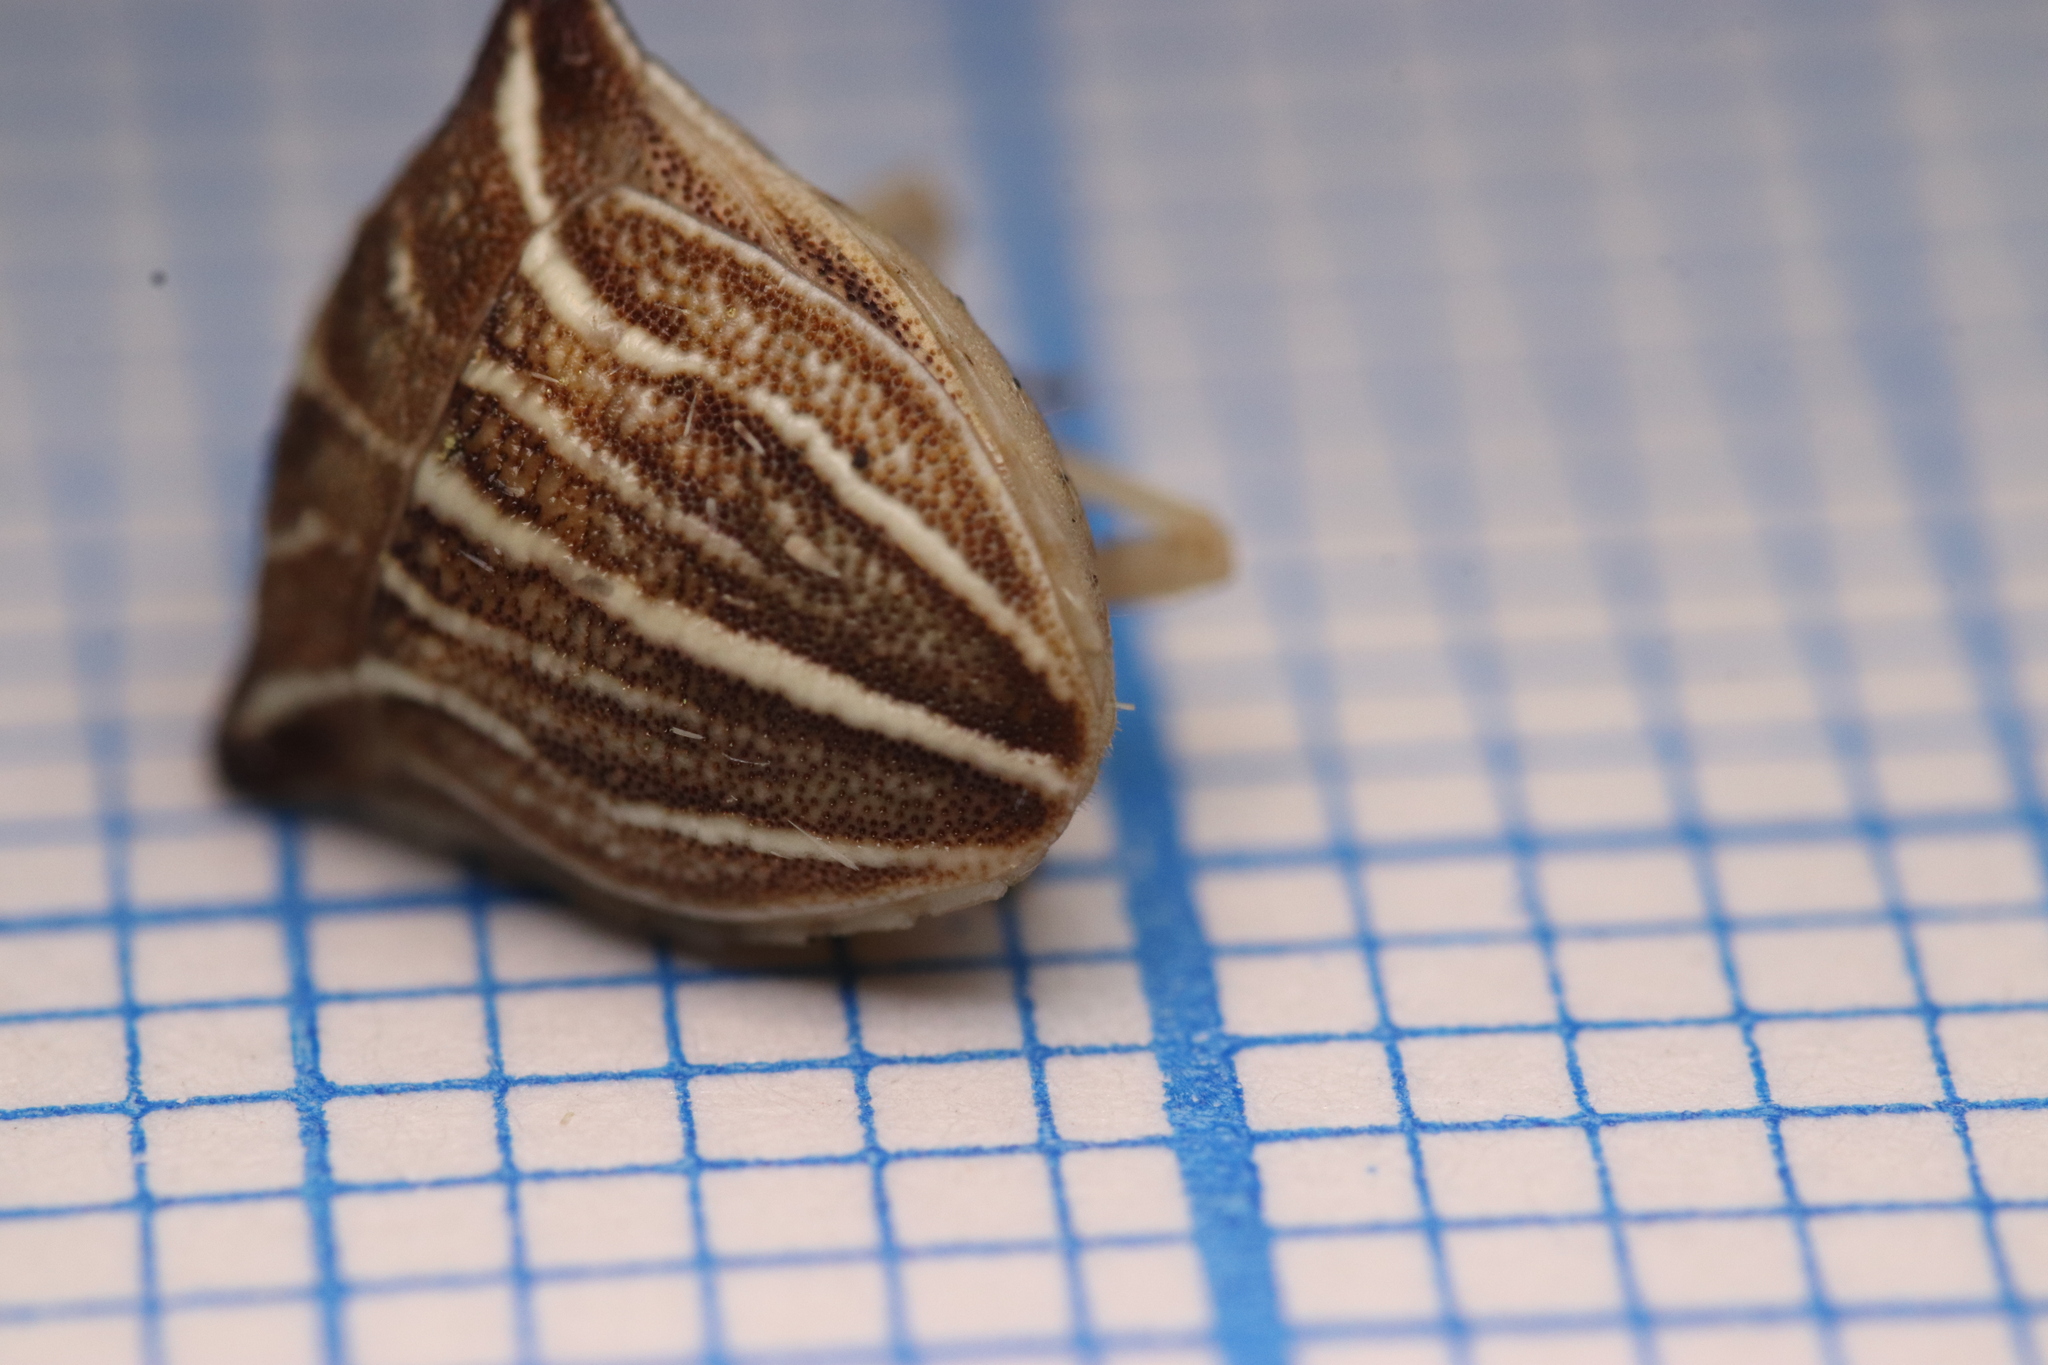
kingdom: Animalia
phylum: Arthropoda
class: Insecta
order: Hemiptera
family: Pentatomidae
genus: Ancyrosoma
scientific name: Ancyrosoma leucogrammes
